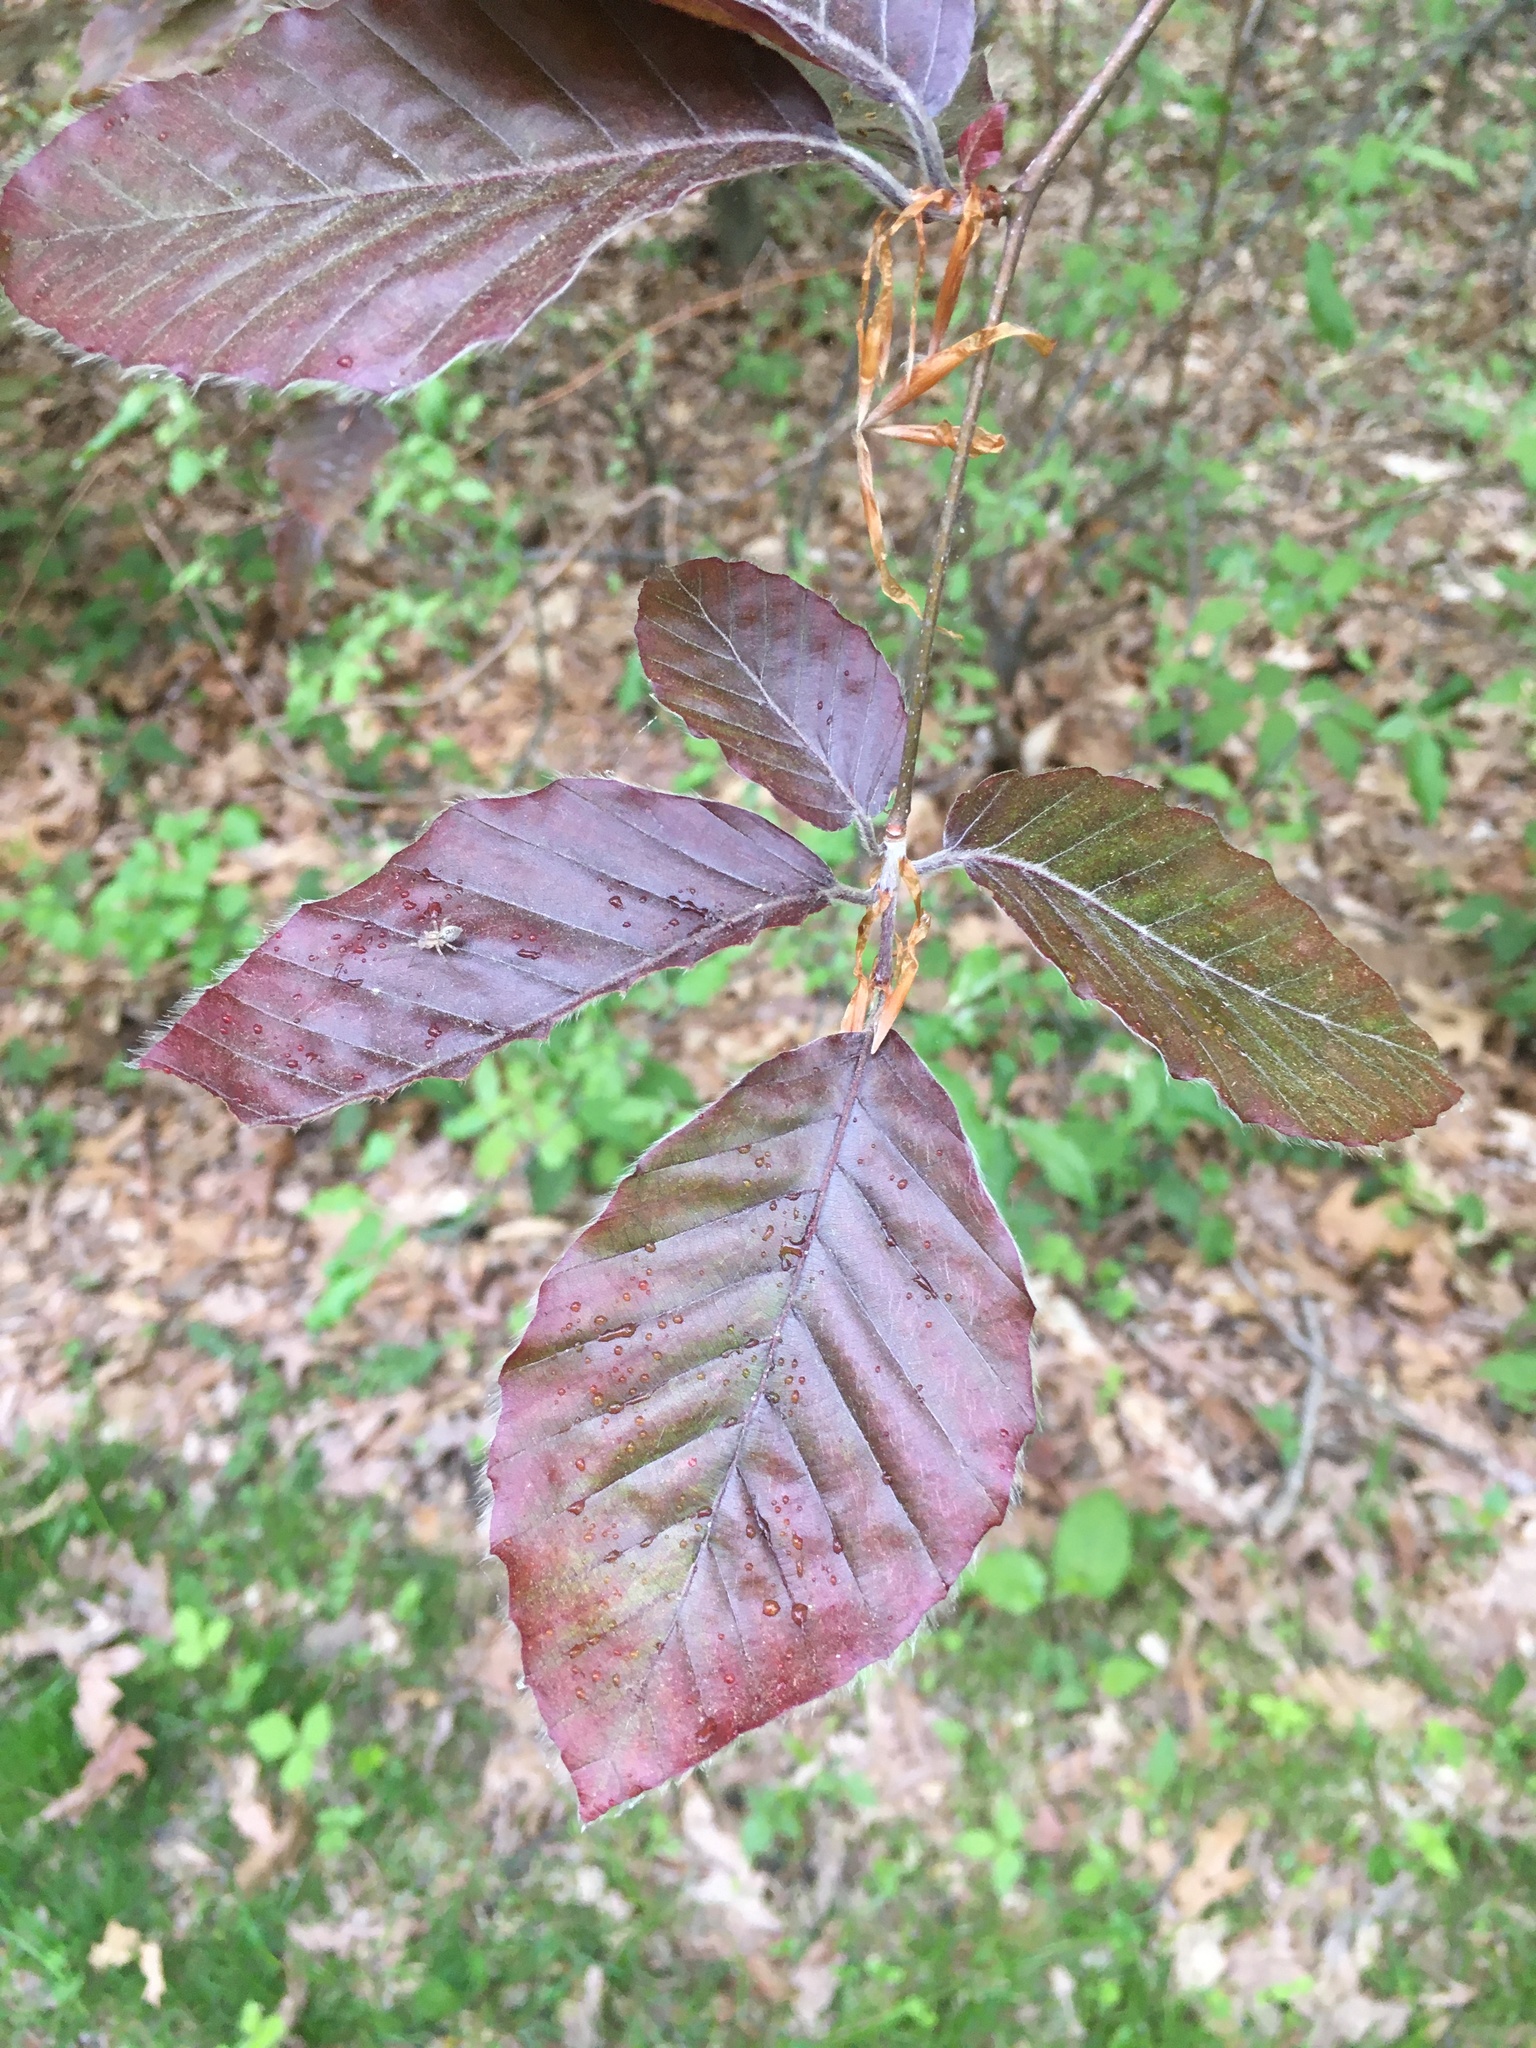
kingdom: Plantae
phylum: Tracheophyta
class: Magnoliopsida
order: Fagales
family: Fagaceae
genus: Fagus
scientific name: Fagus sylvatica
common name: Beech
